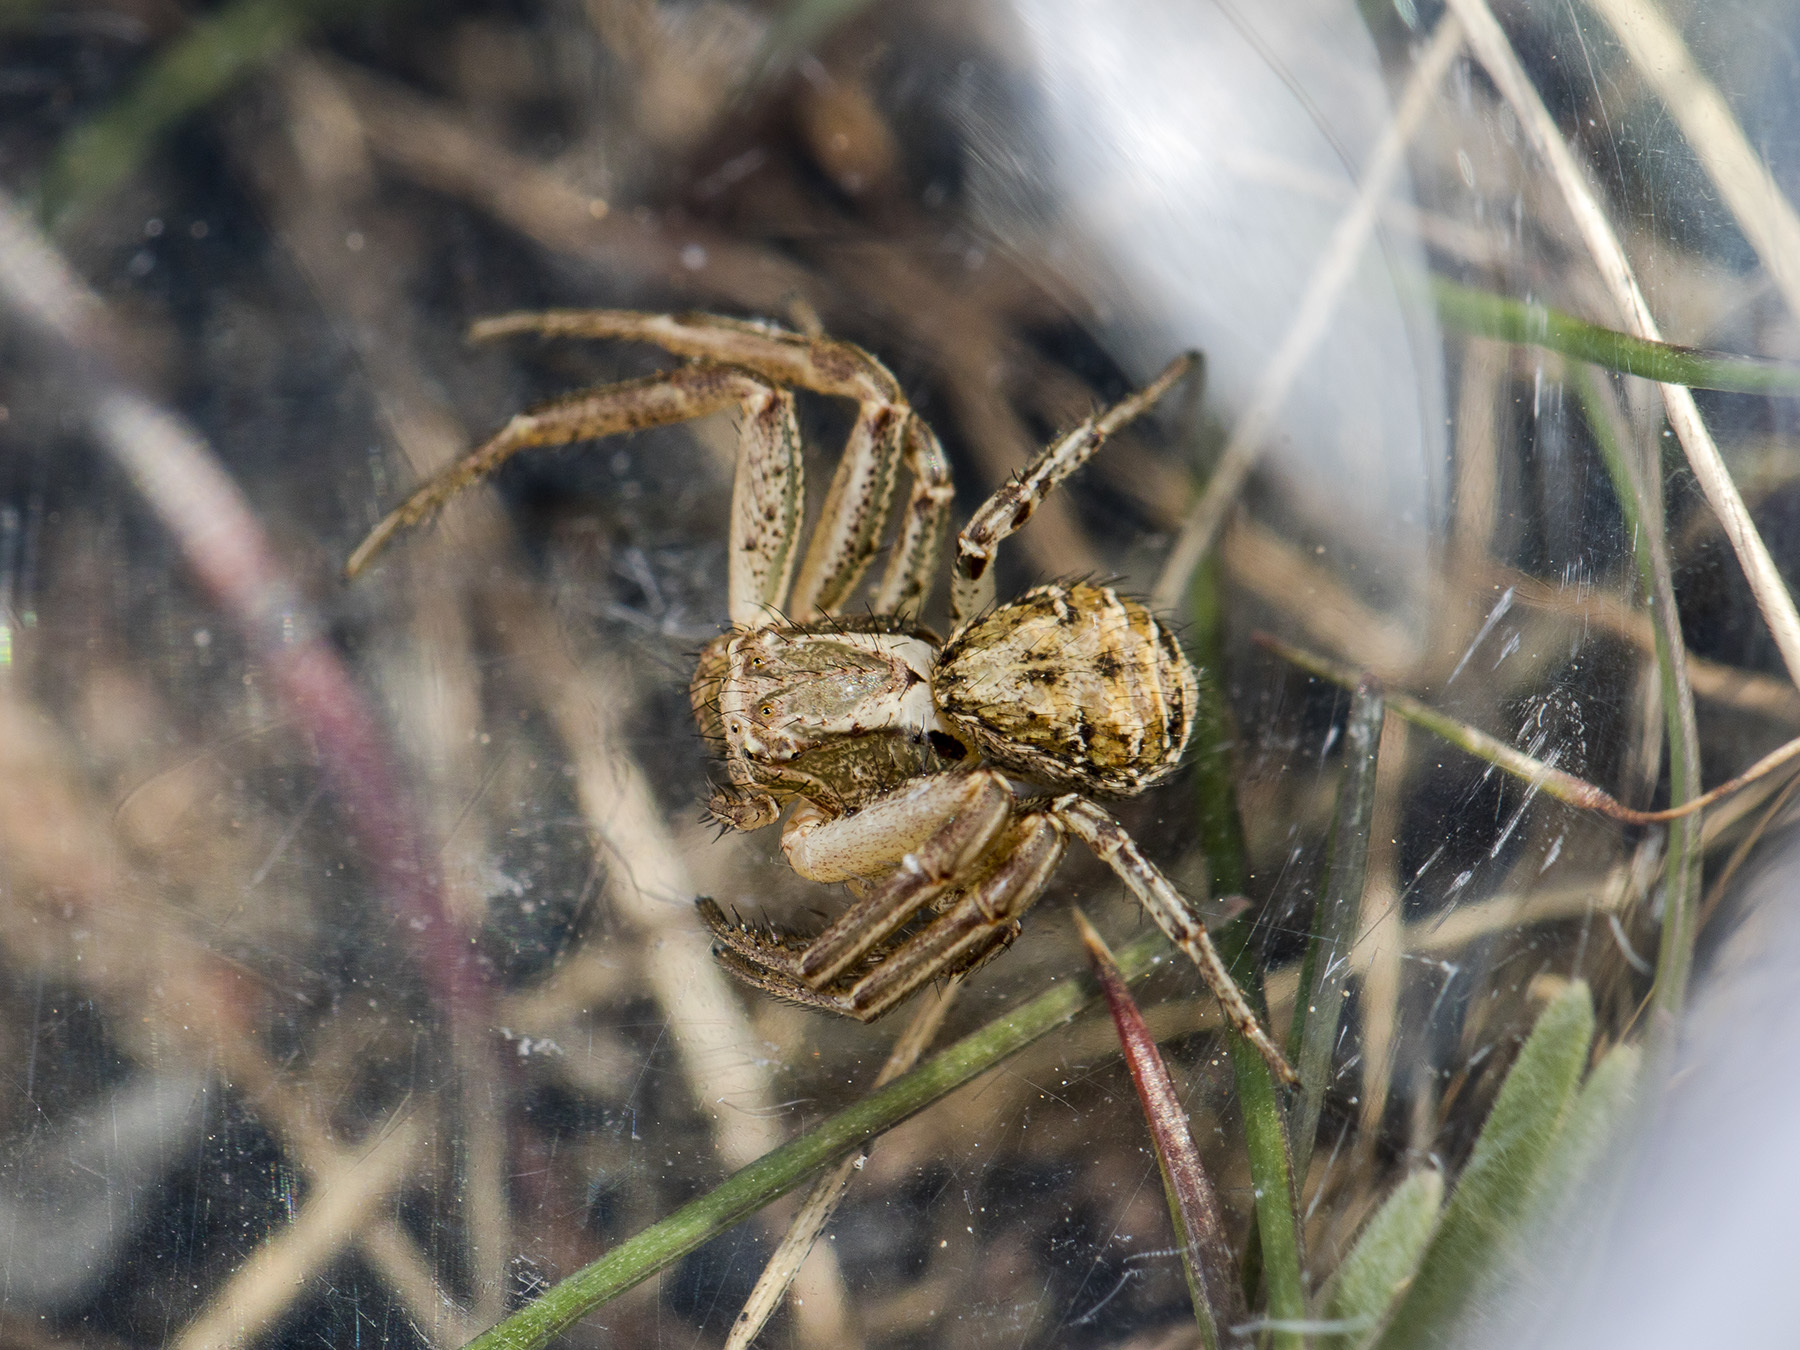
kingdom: Animalia
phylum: Arthropoda
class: Arachnida
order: Araneae
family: Thomisidae
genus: Xysticus
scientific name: Xysticus pseudocristatus
